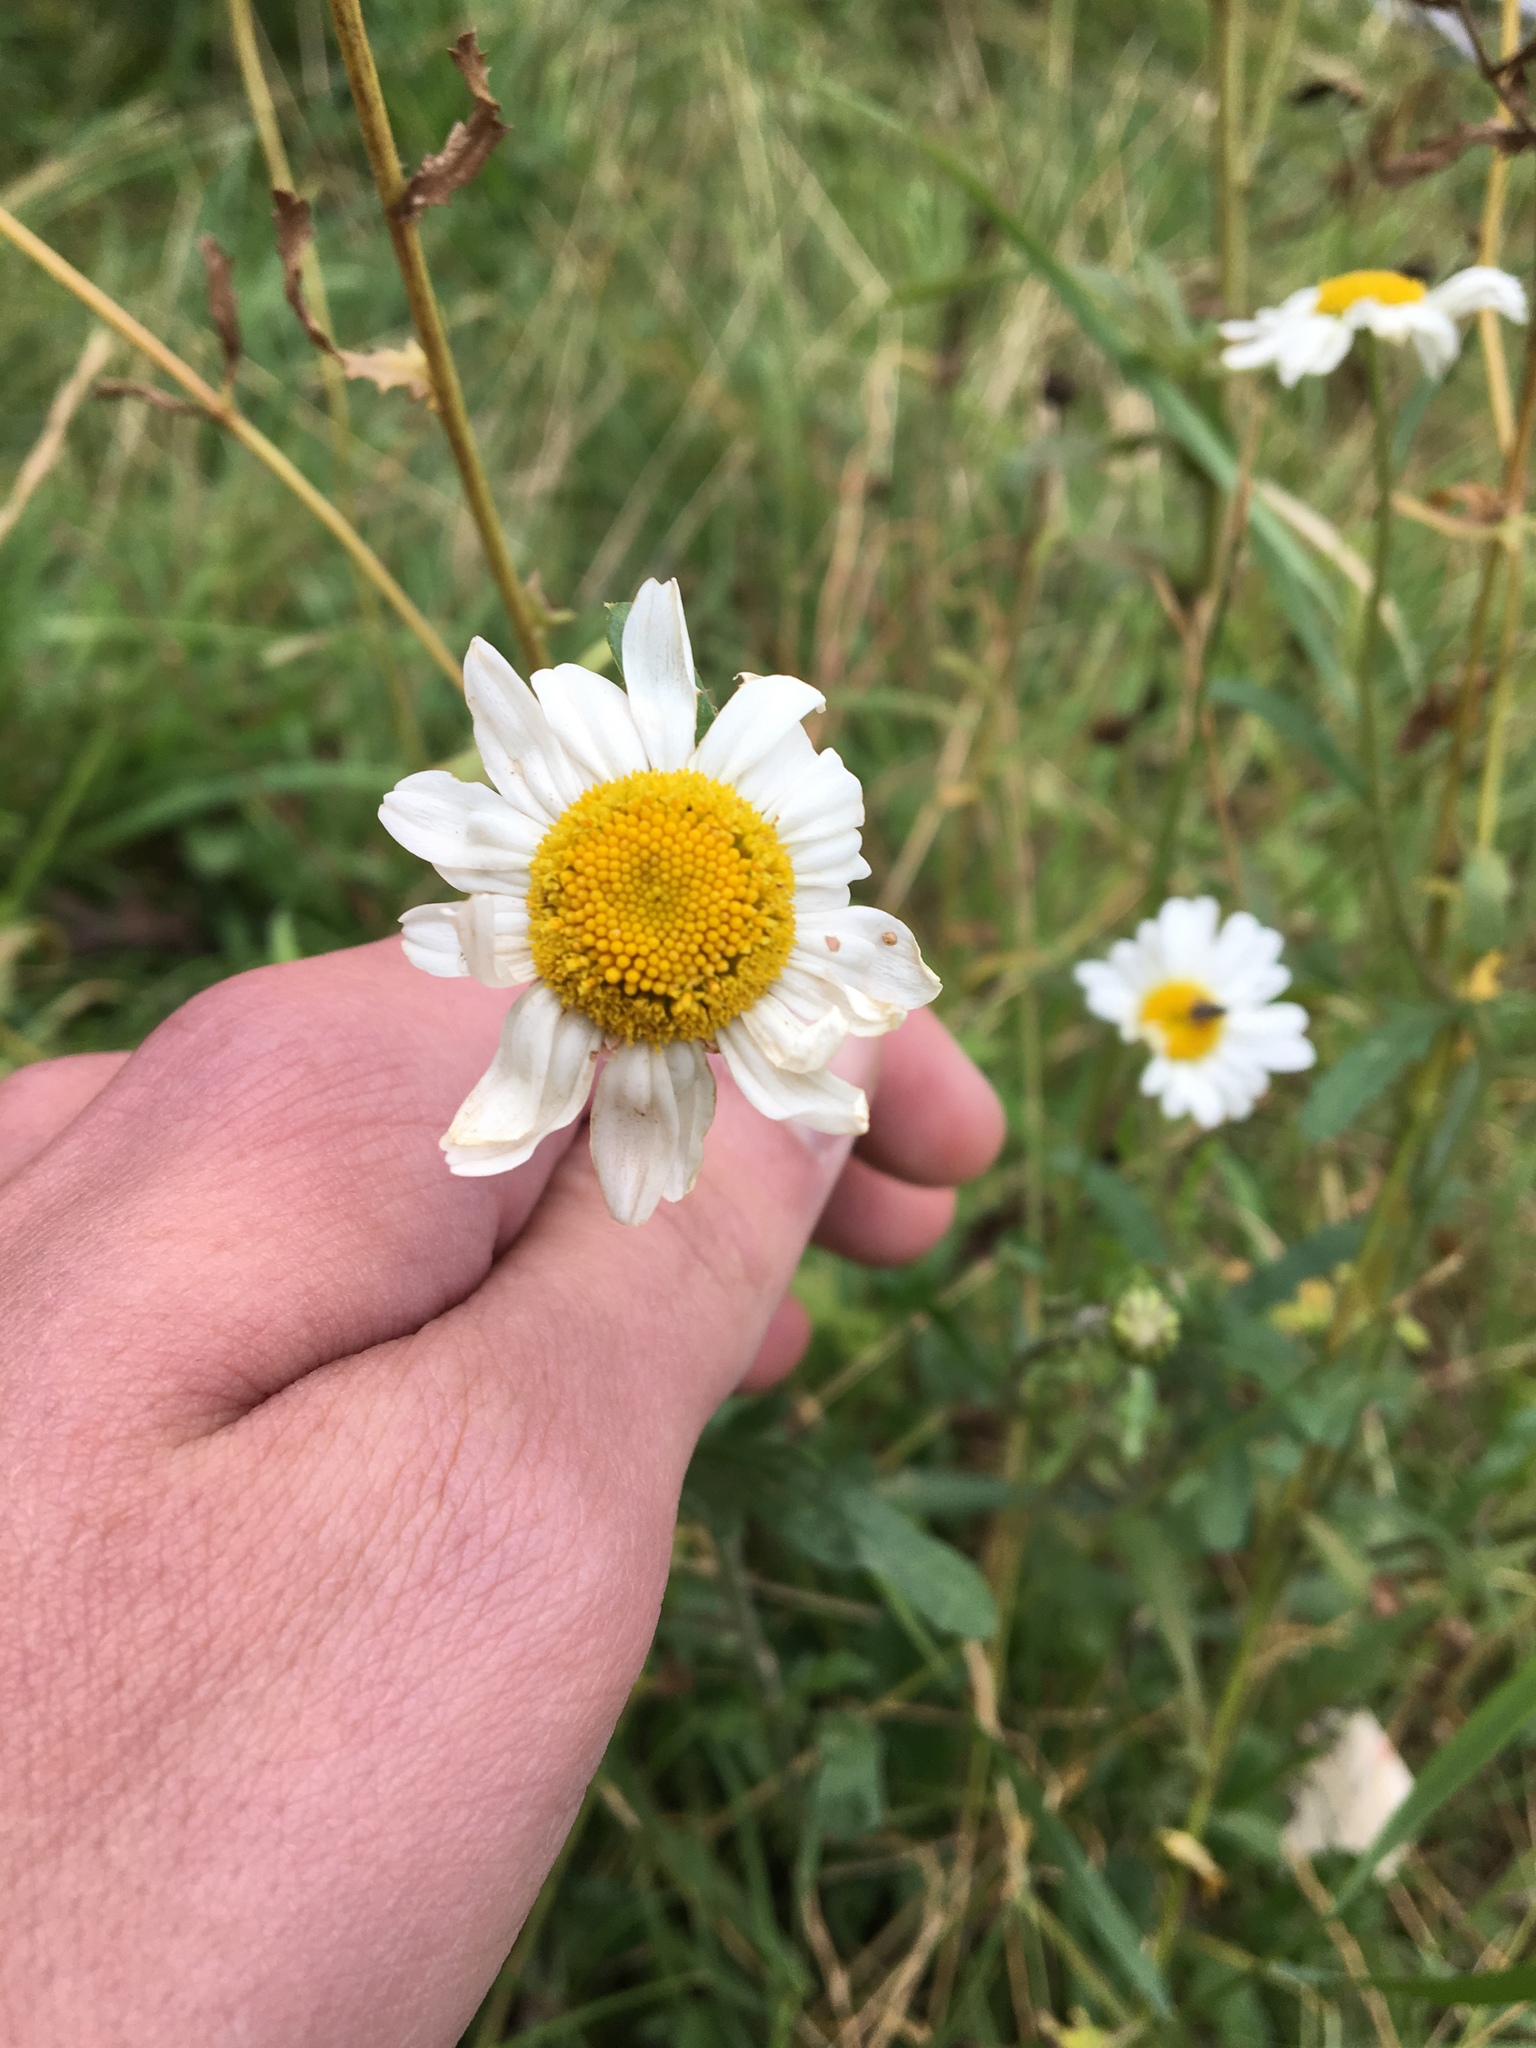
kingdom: Plantae
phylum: Tracheophyta
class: Magnoliopsida
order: Asterales
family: Asteraceae
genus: Leucanthemum
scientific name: Leucanthemum vulgare
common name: Oxeye daisy
